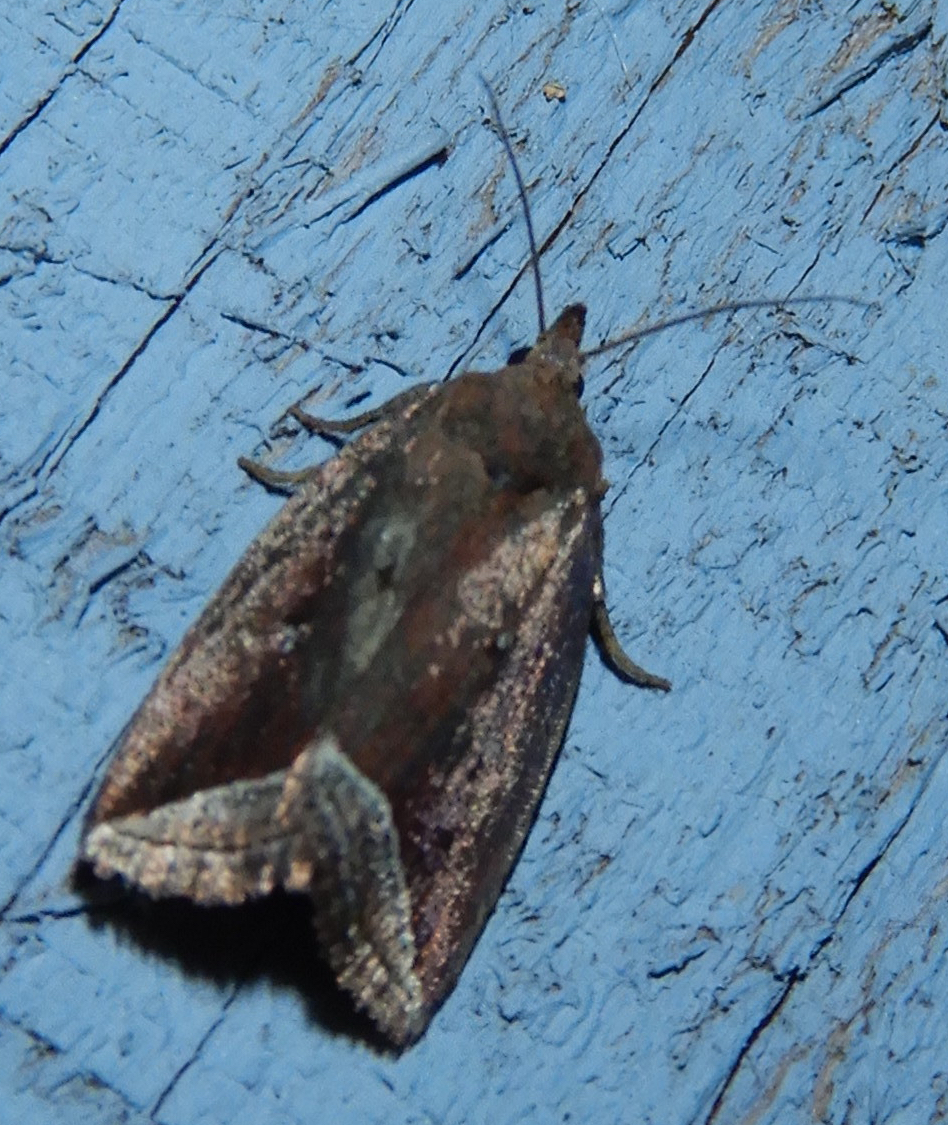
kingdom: Animalia
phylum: Arthropoda
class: Insecta
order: Lepidoptera
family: Erebidae
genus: Capis
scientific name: Capis curvata
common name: Curved halter moth
